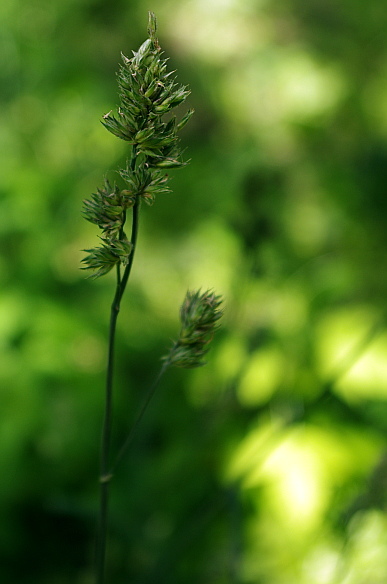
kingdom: Plantae
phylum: Tracheophyta
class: Liliopsida
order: Poales
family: Poaceae
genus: Dactylis
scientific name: Dactylis glomerata
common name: Orchardgrass
